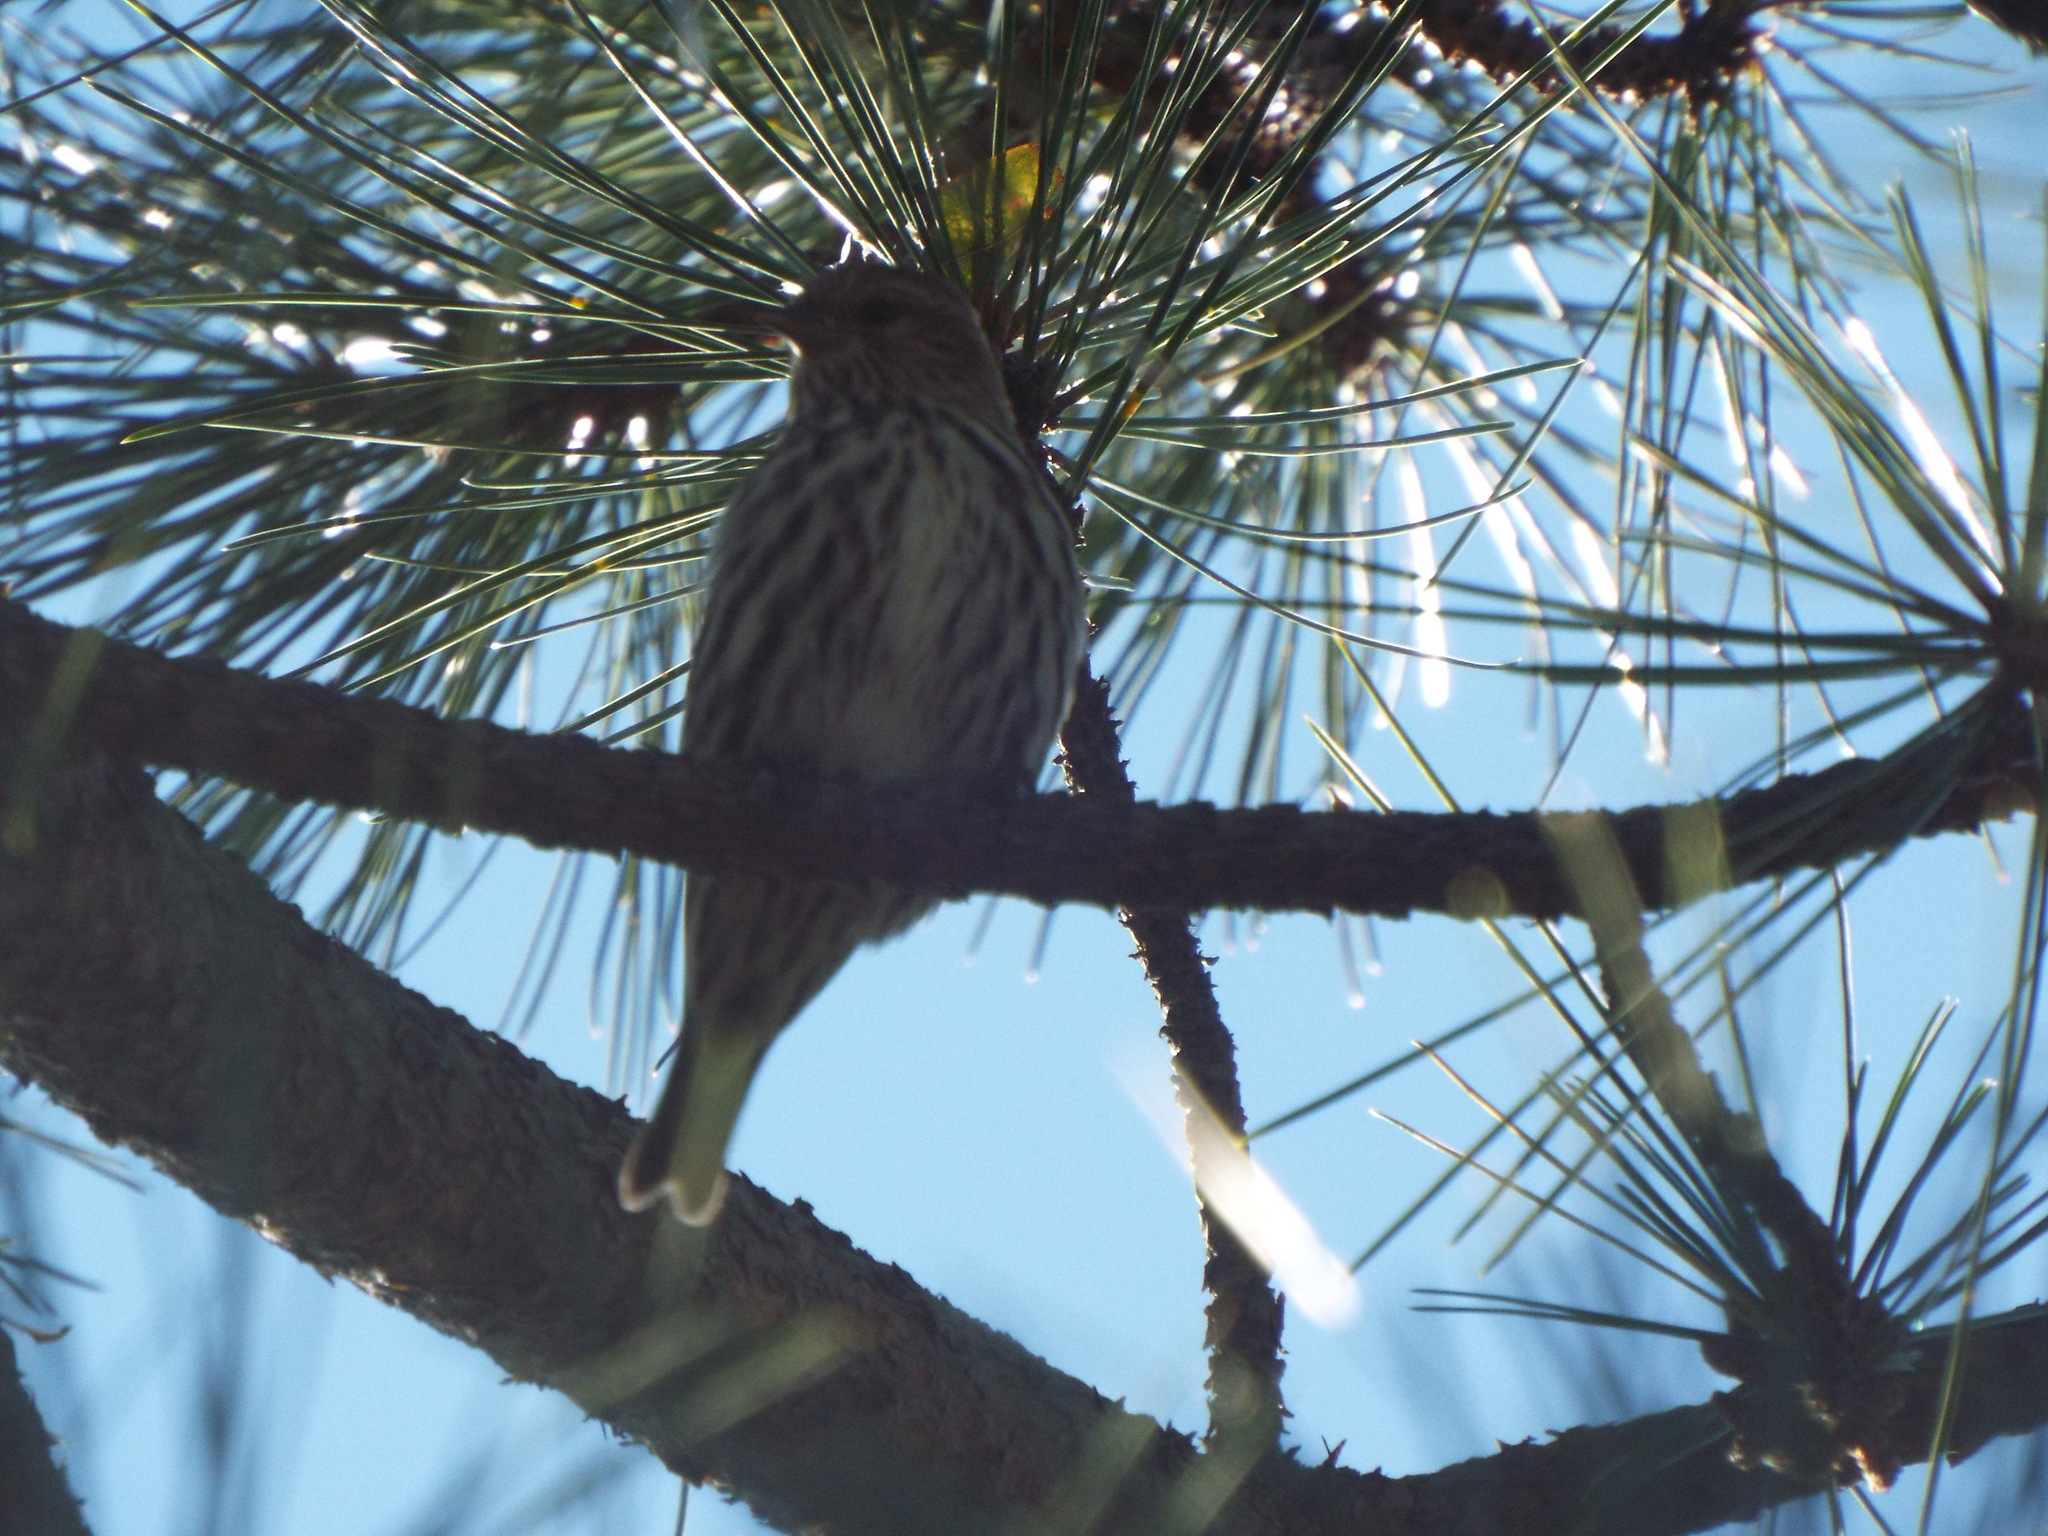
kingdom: Animalia
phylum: Chordata
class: Aves
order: Passeriformes
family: Fringillidae
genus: Spinus
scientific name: Spinus pinus
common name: Pine siskin
